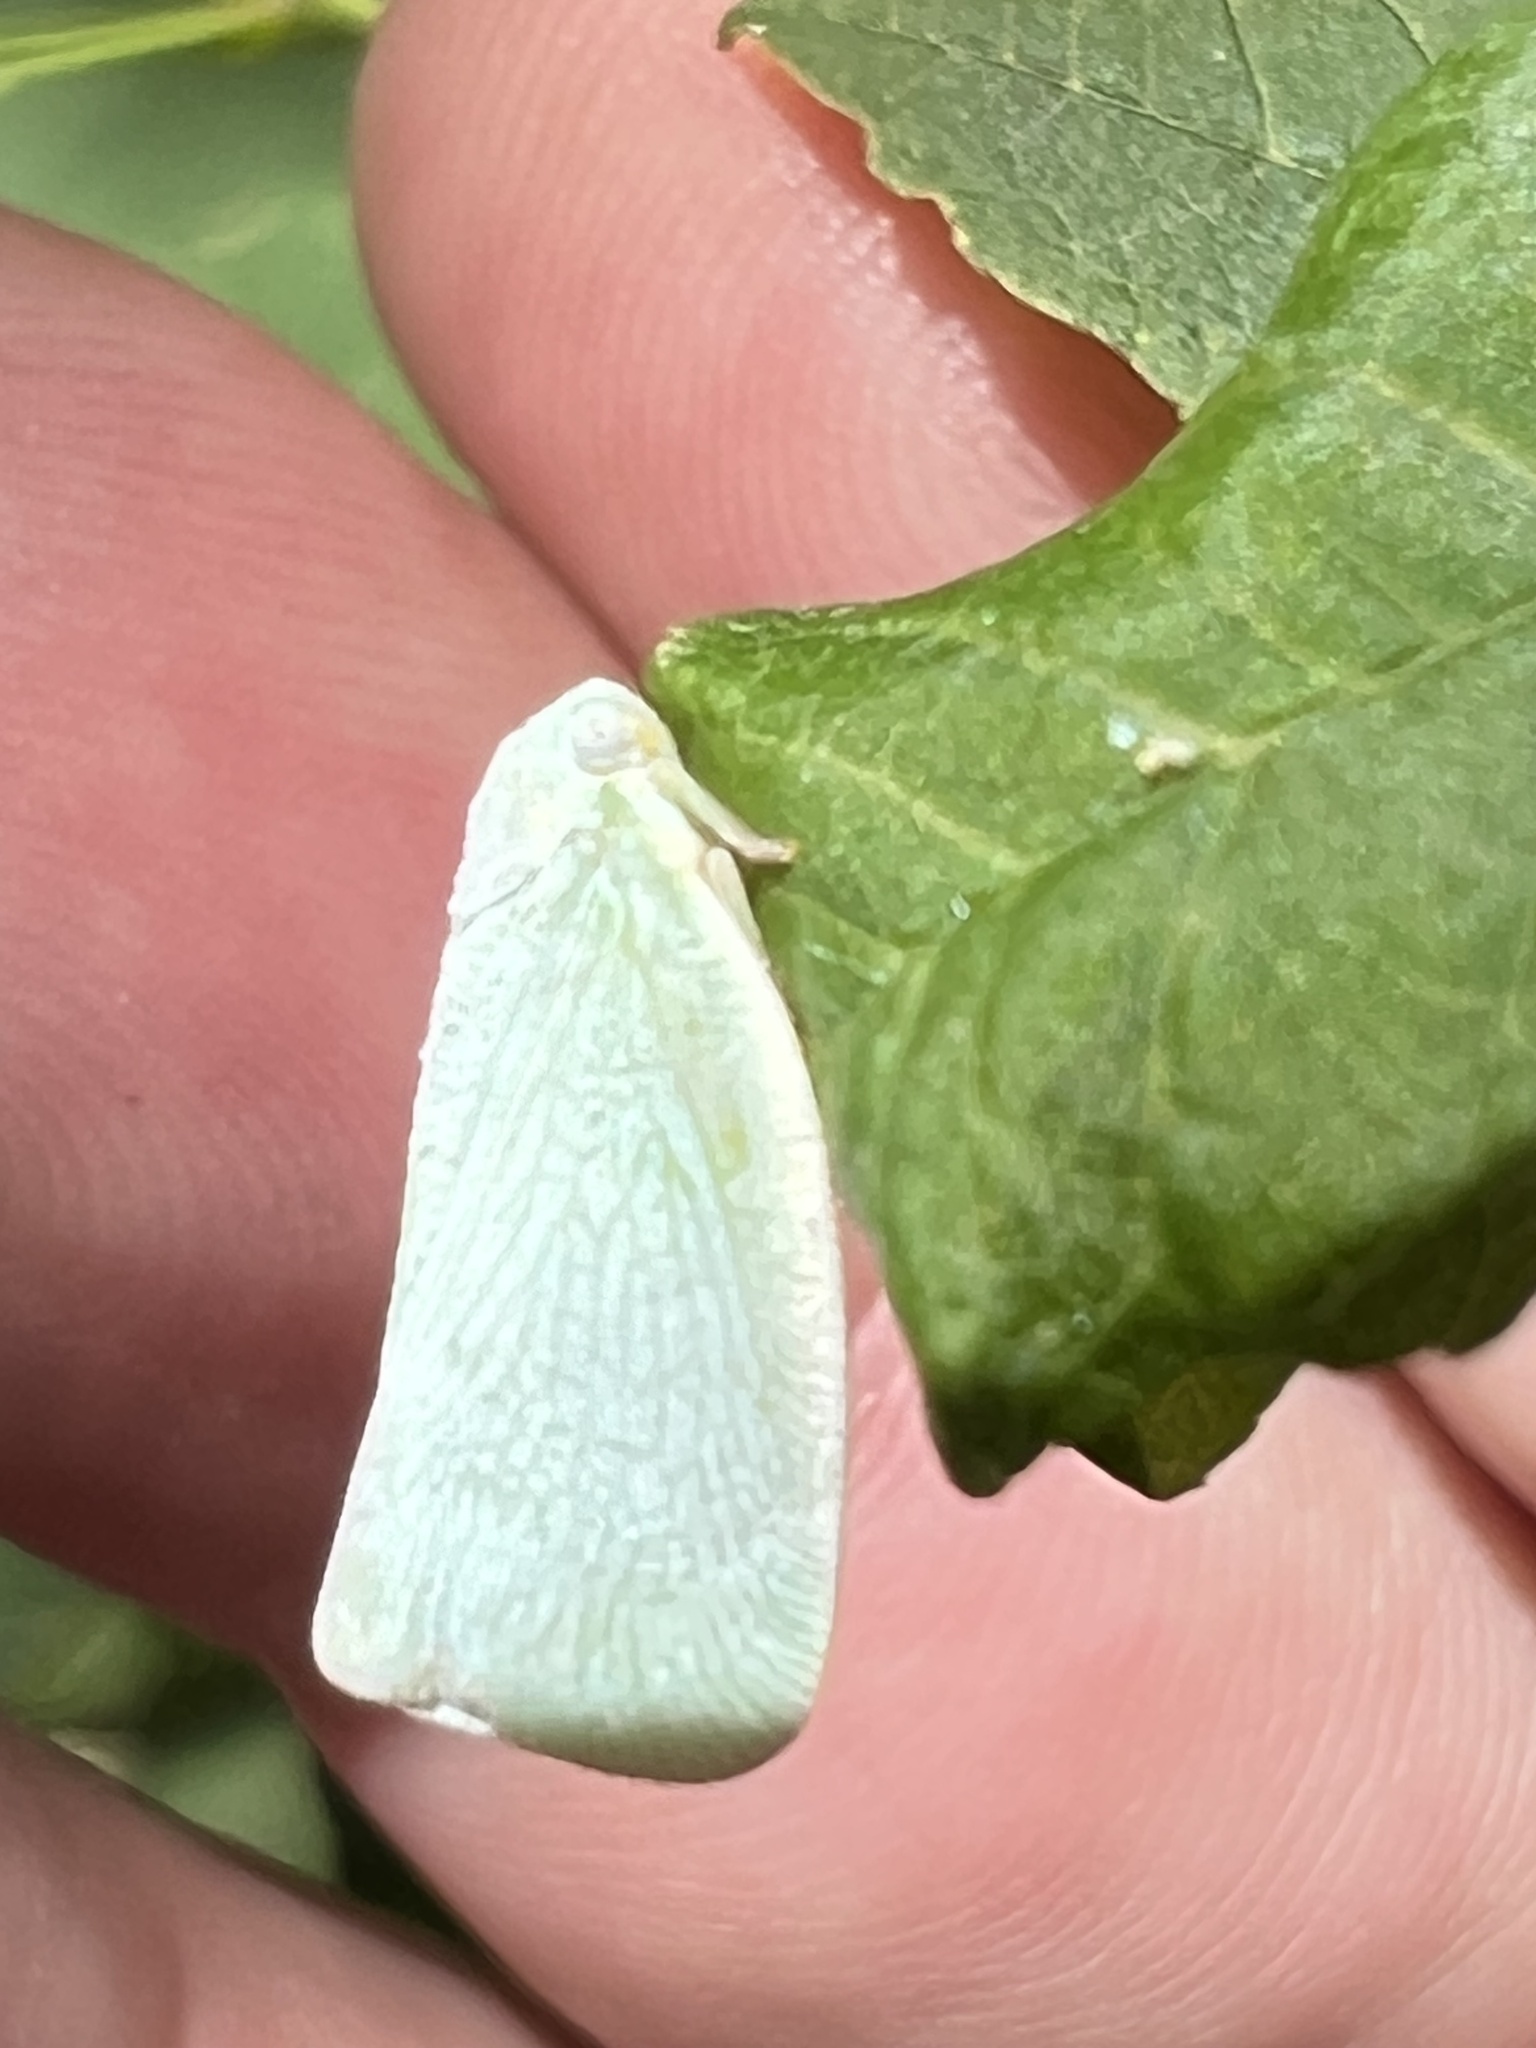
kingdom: Animalia
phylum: Arthropoda
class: Insecta
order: Hemiptera
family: Flatidae
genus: Flatormenis
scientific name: Flatormenis proxima
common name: Northern flatid planthopper
